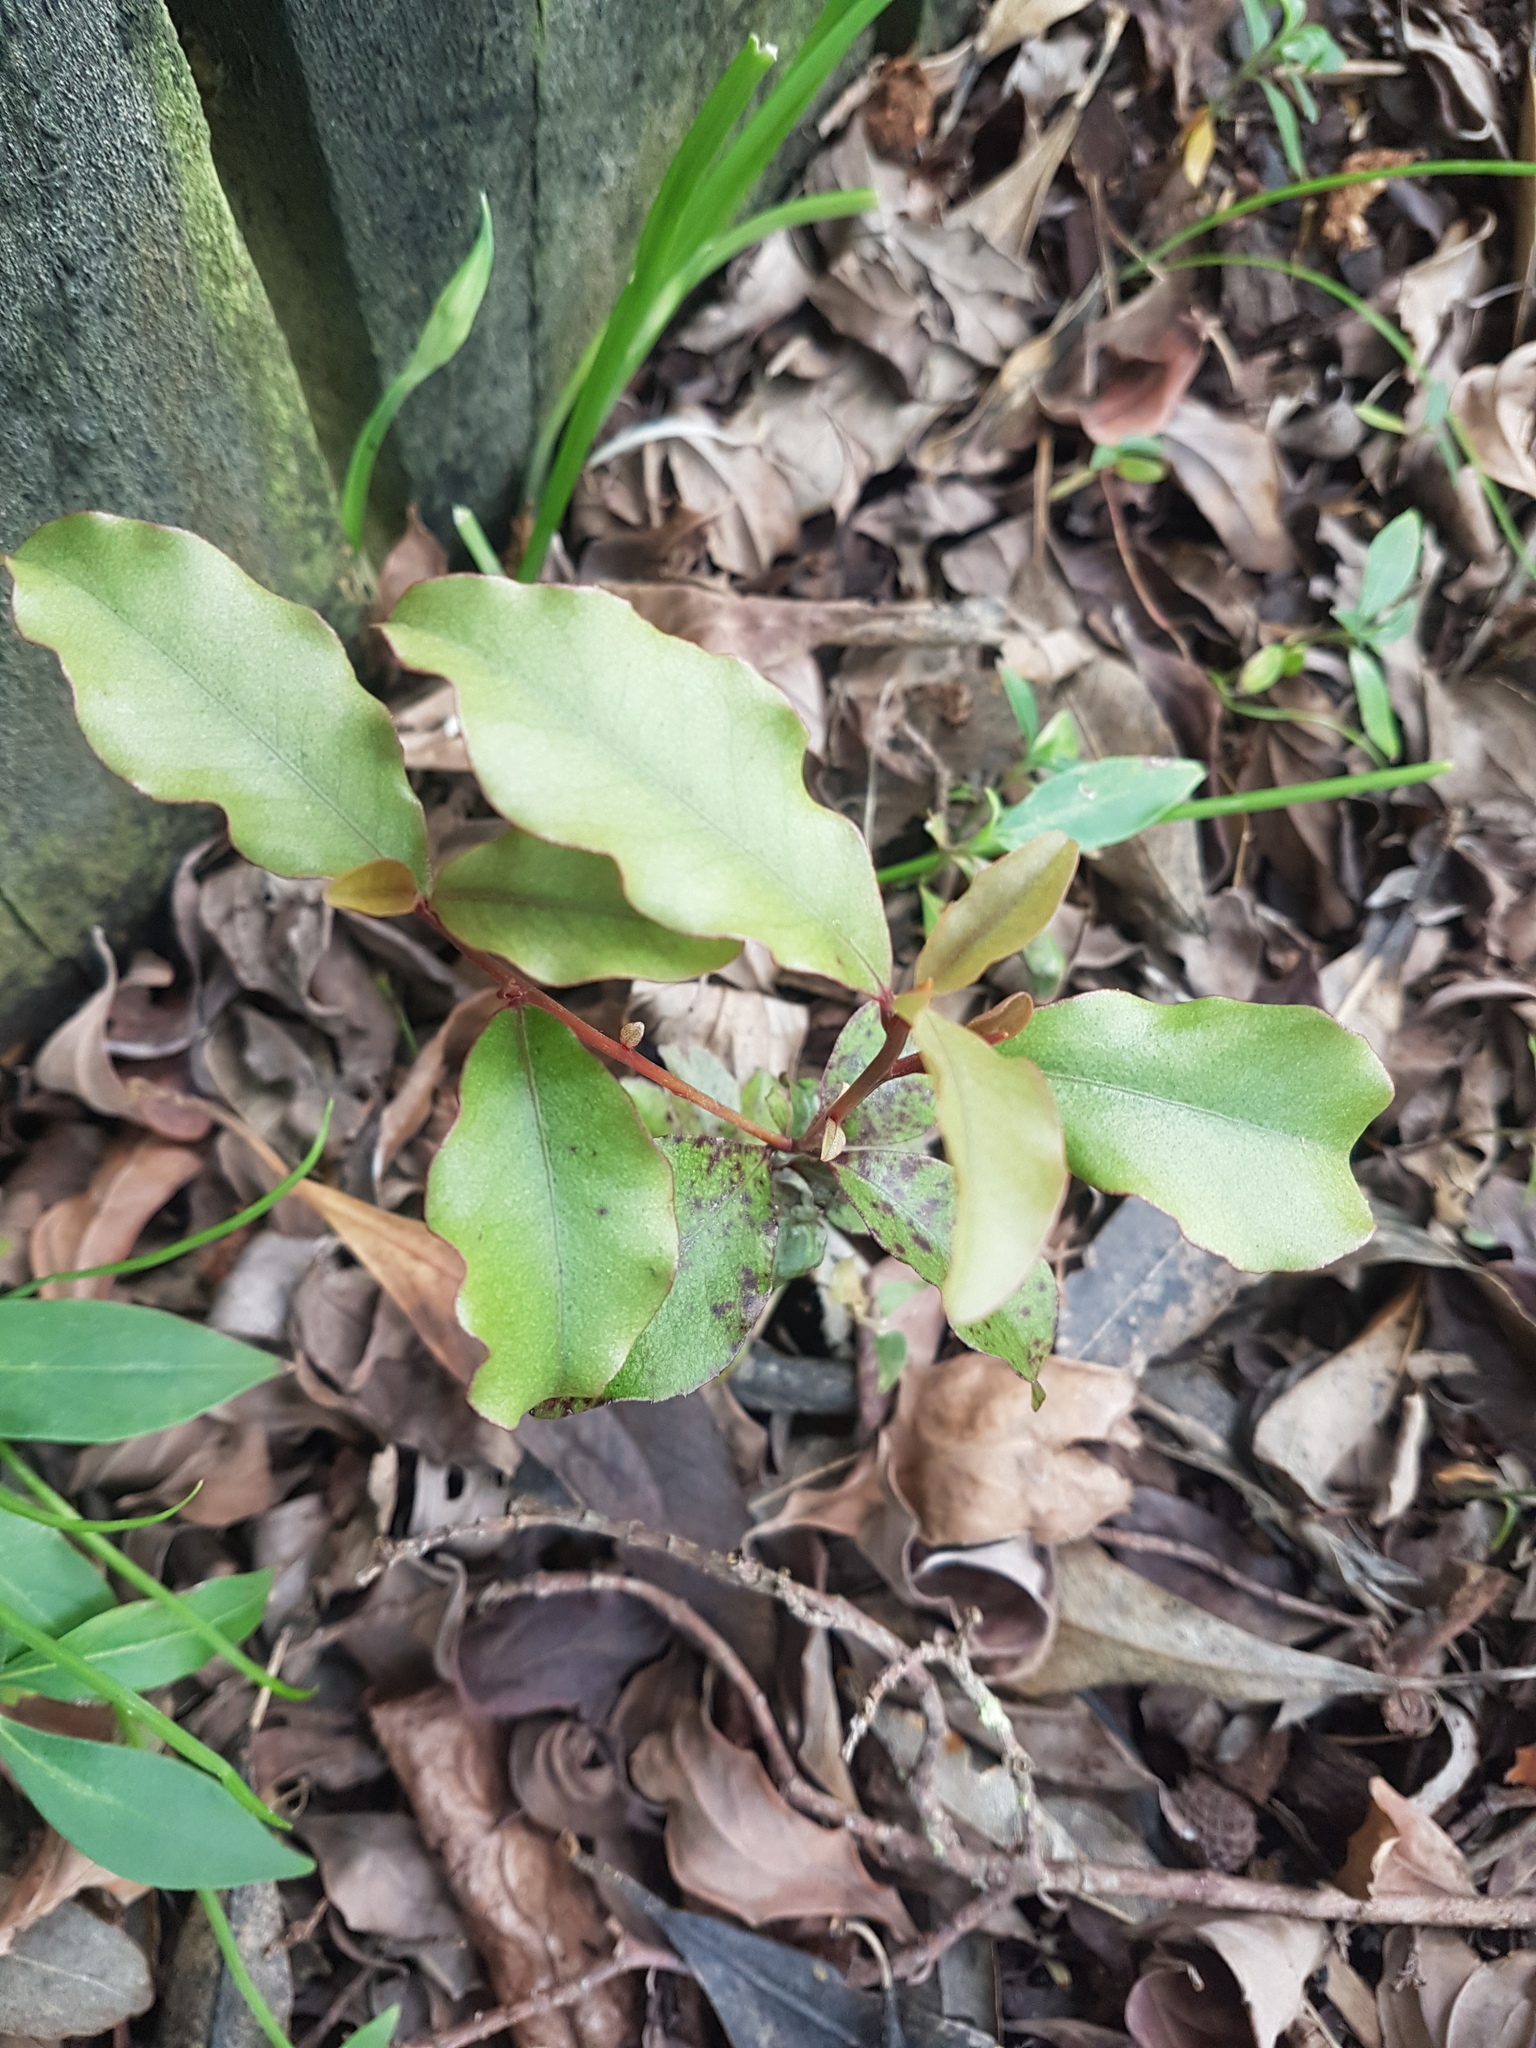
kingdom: Plantae
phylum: Tracheophyta
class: Magnoliopsida
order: Ericales
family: Primulaceae
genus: Myrsine
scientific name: Myrsine australis
